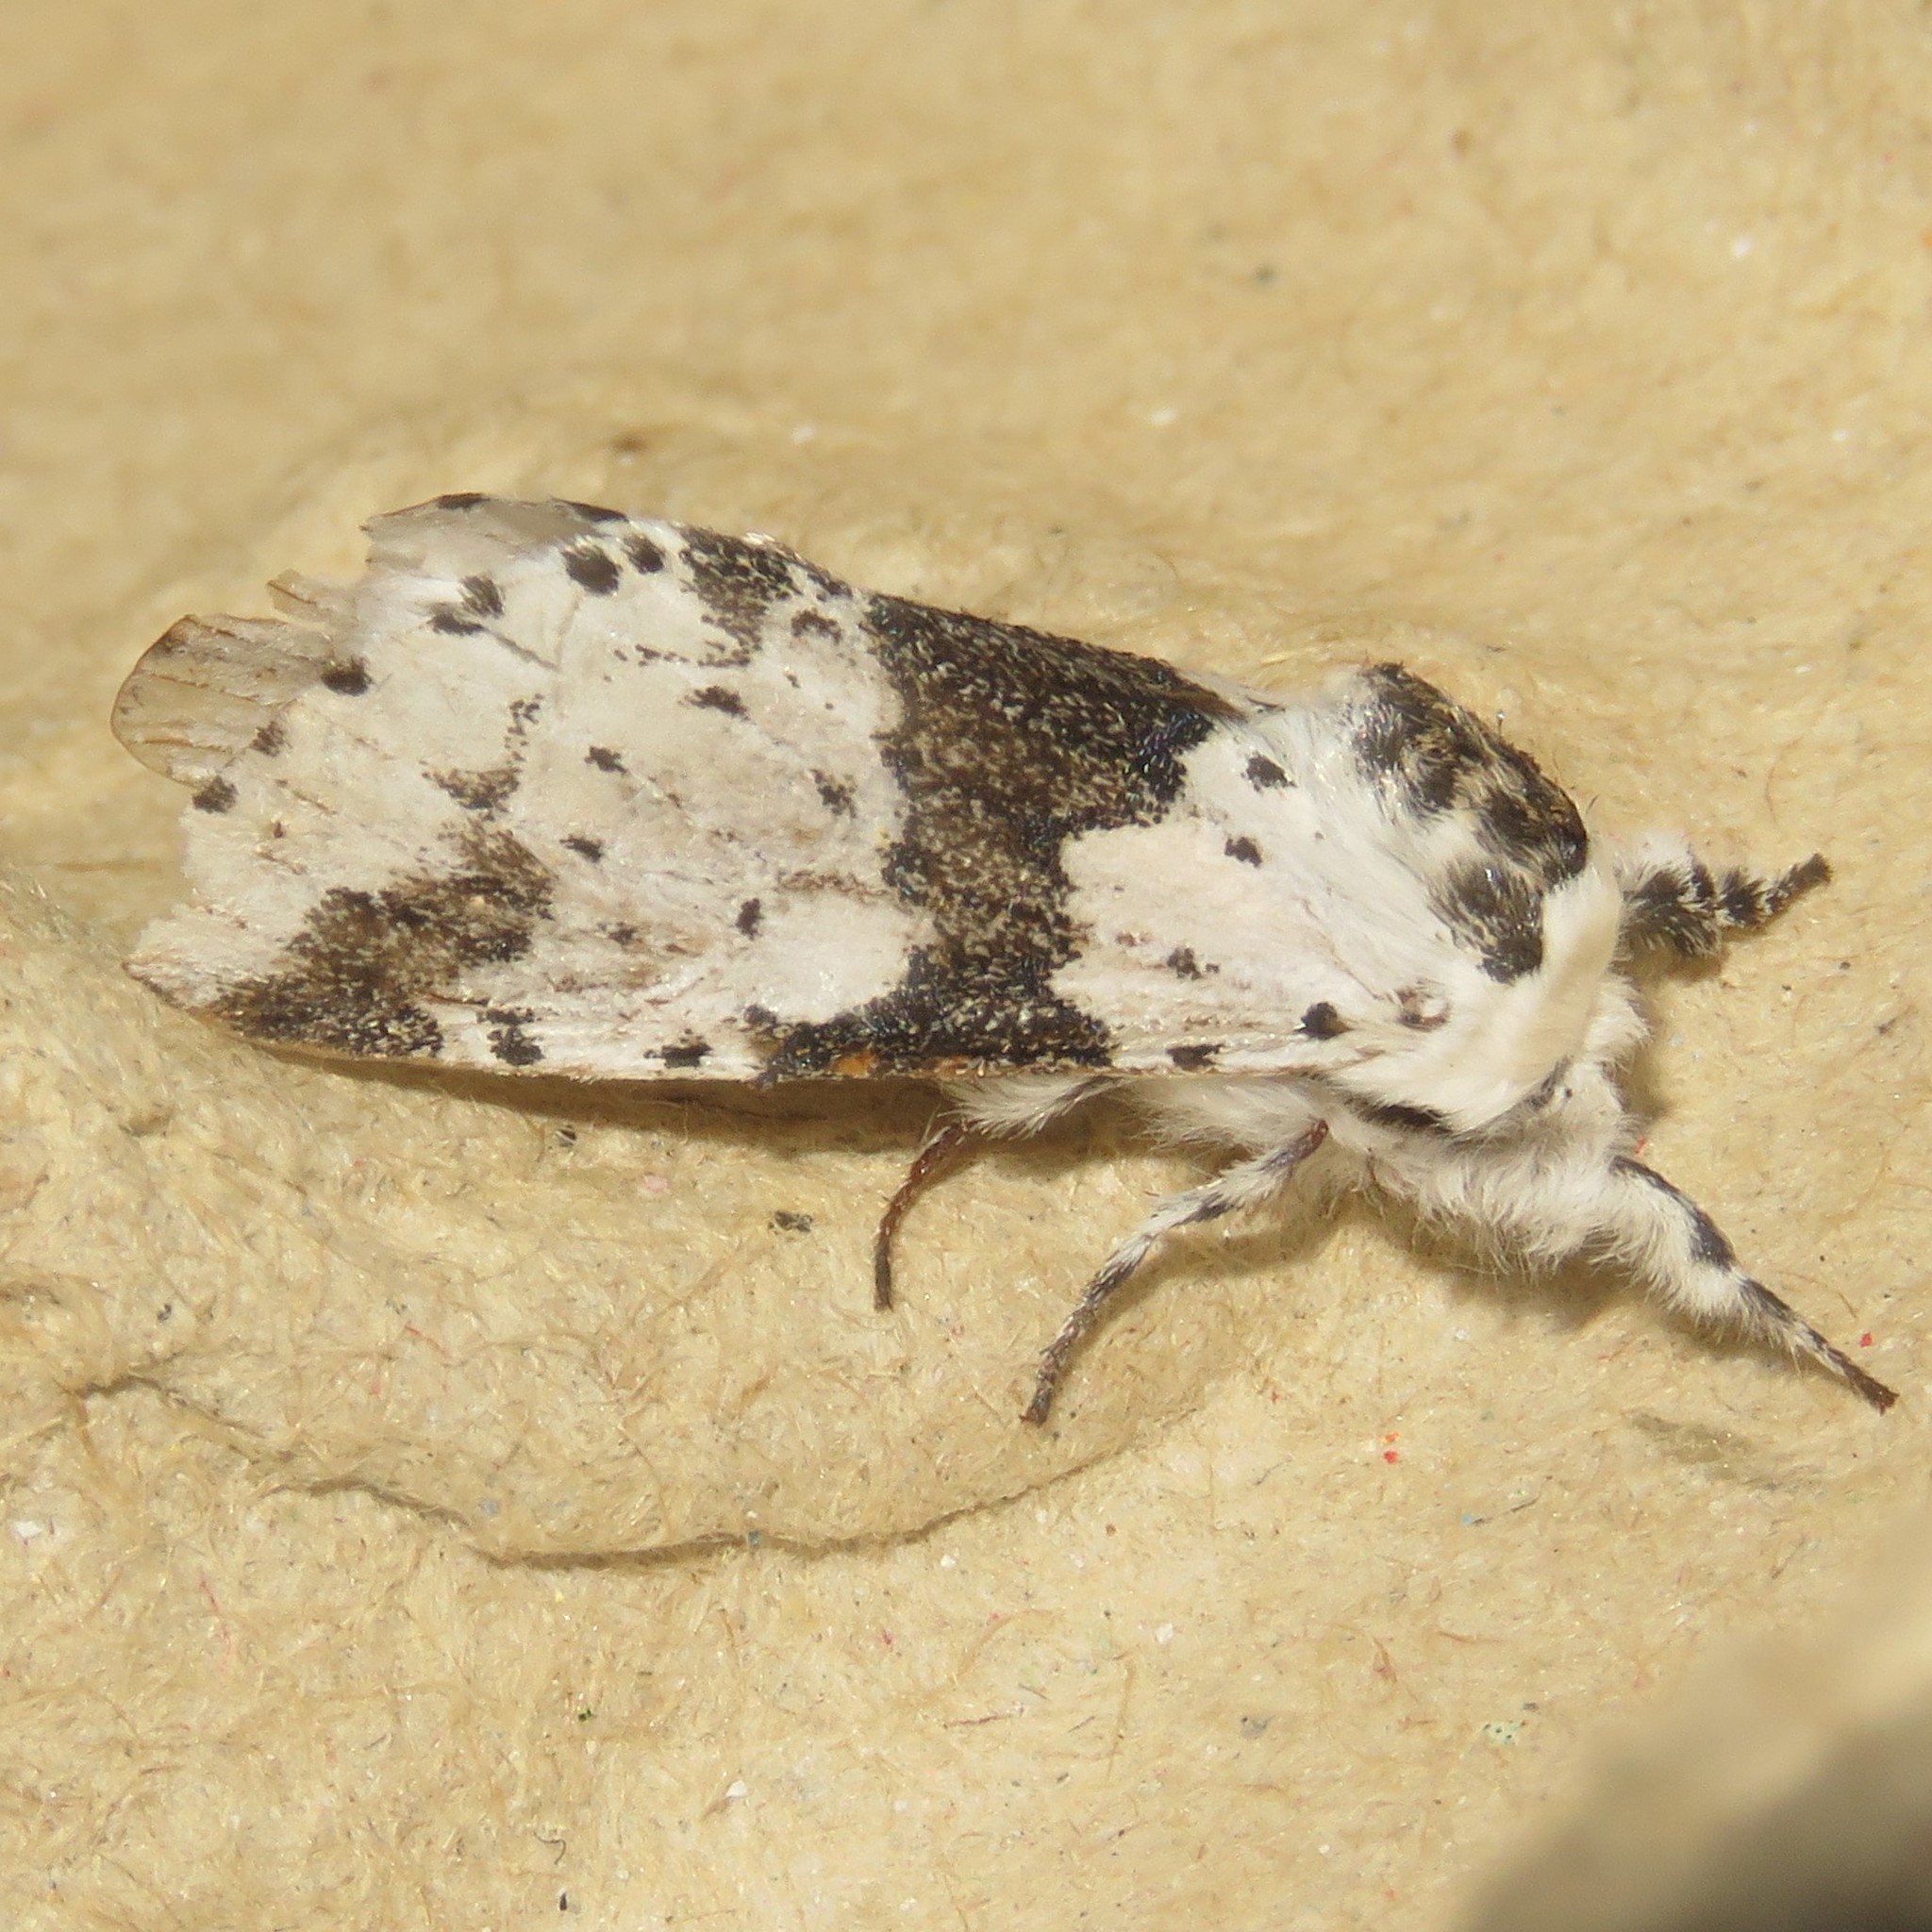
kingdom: Animalia
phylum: Arthropoda
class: Insecta
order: Lepidoptera
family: Notodontidae
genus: Furcula
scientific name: Furcula borealis
